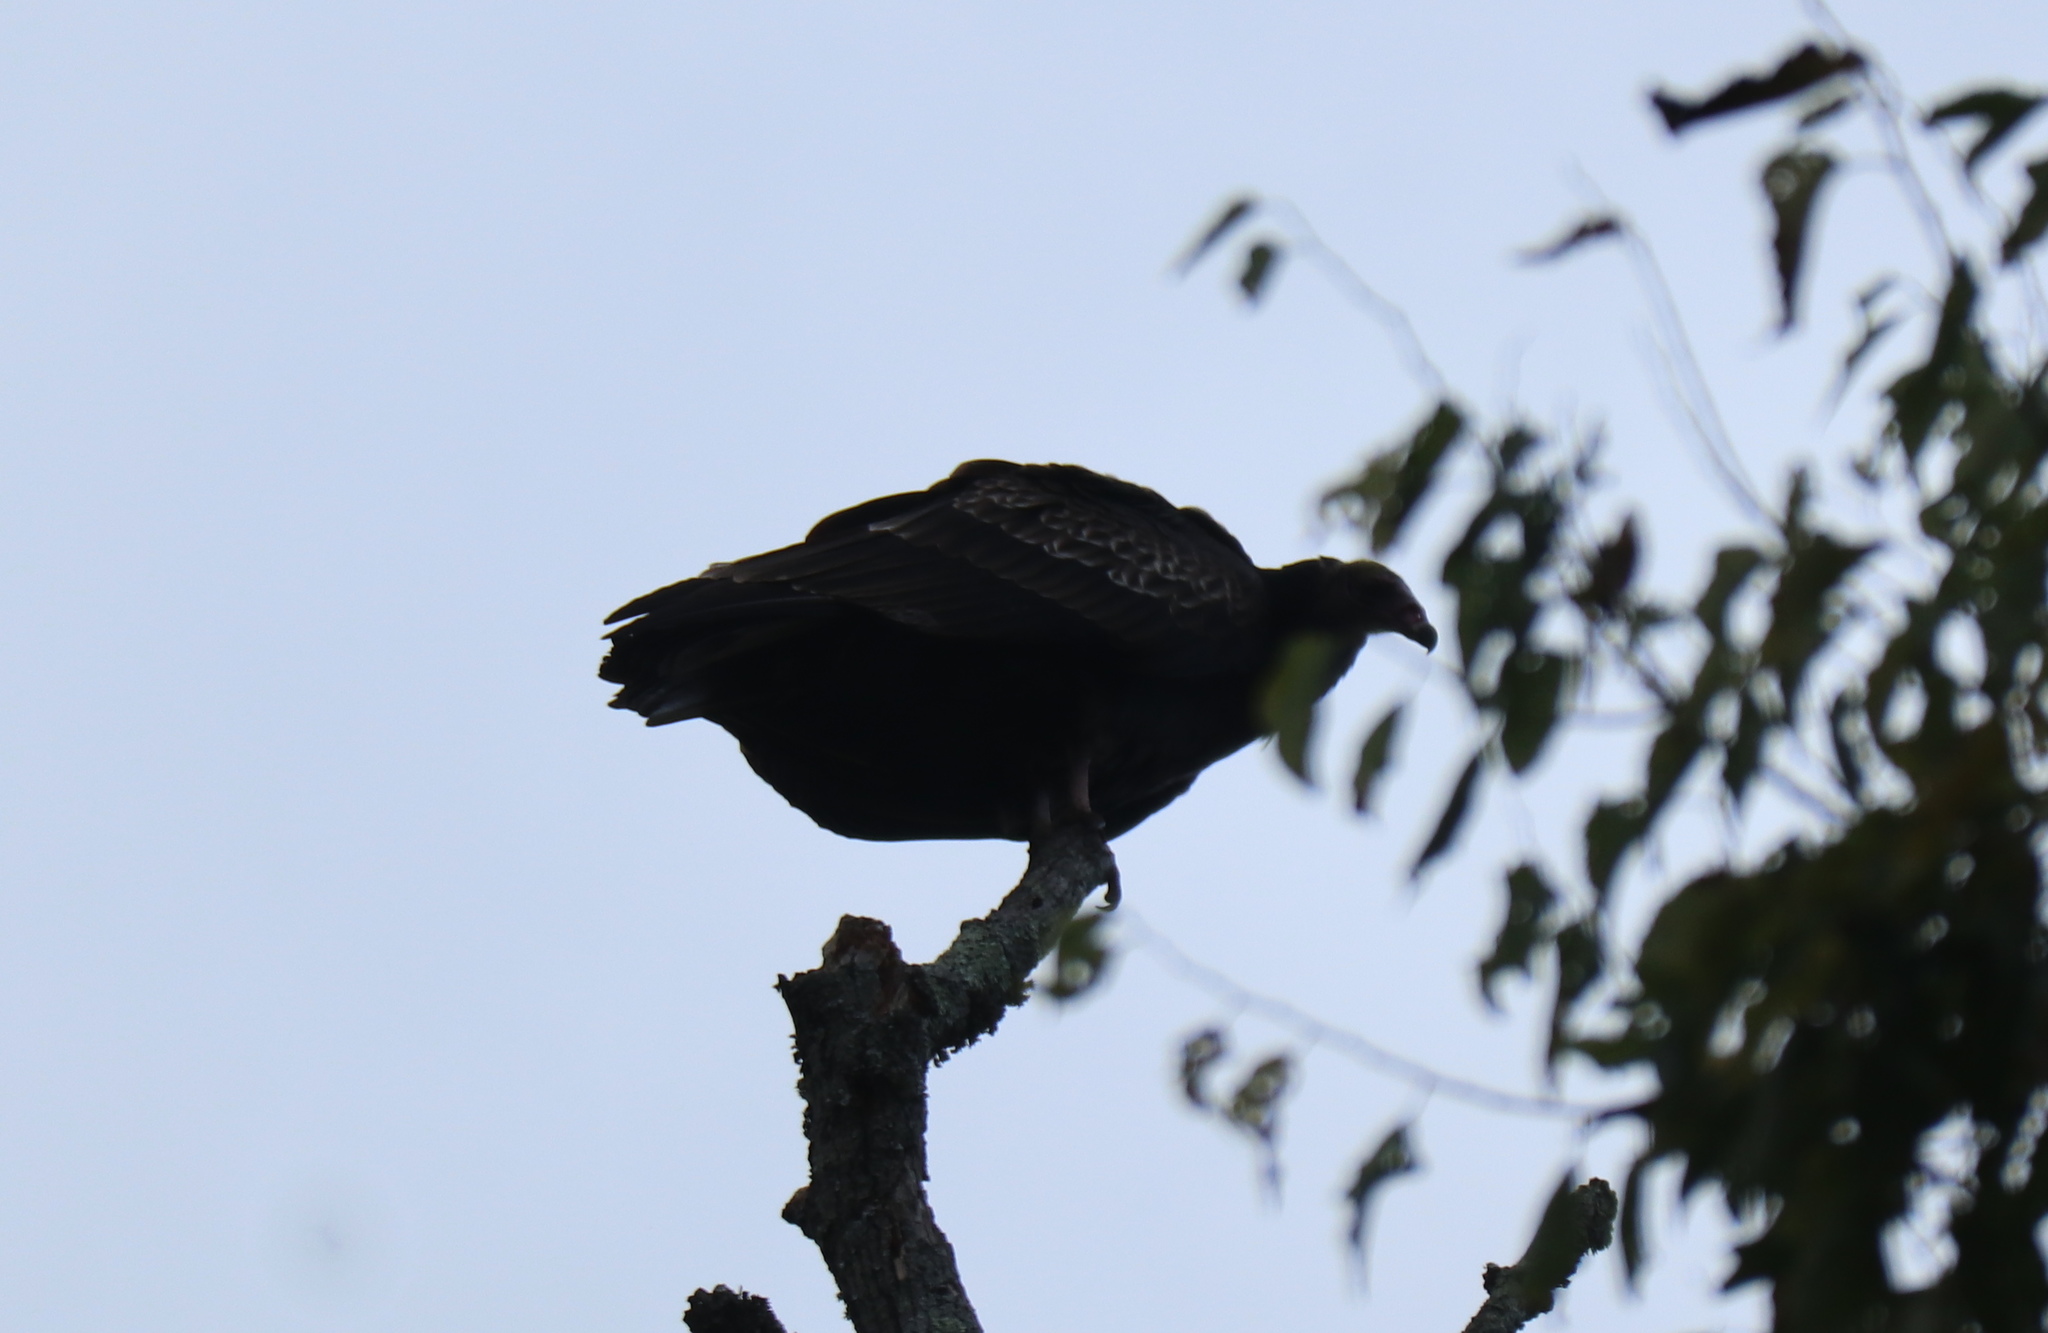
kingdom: Animalia
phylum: Chordata
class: Aves
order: Accipitriformes
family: Cathartidae
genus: Cathartes
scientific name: Cathartes aura
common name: Turkey vulture
